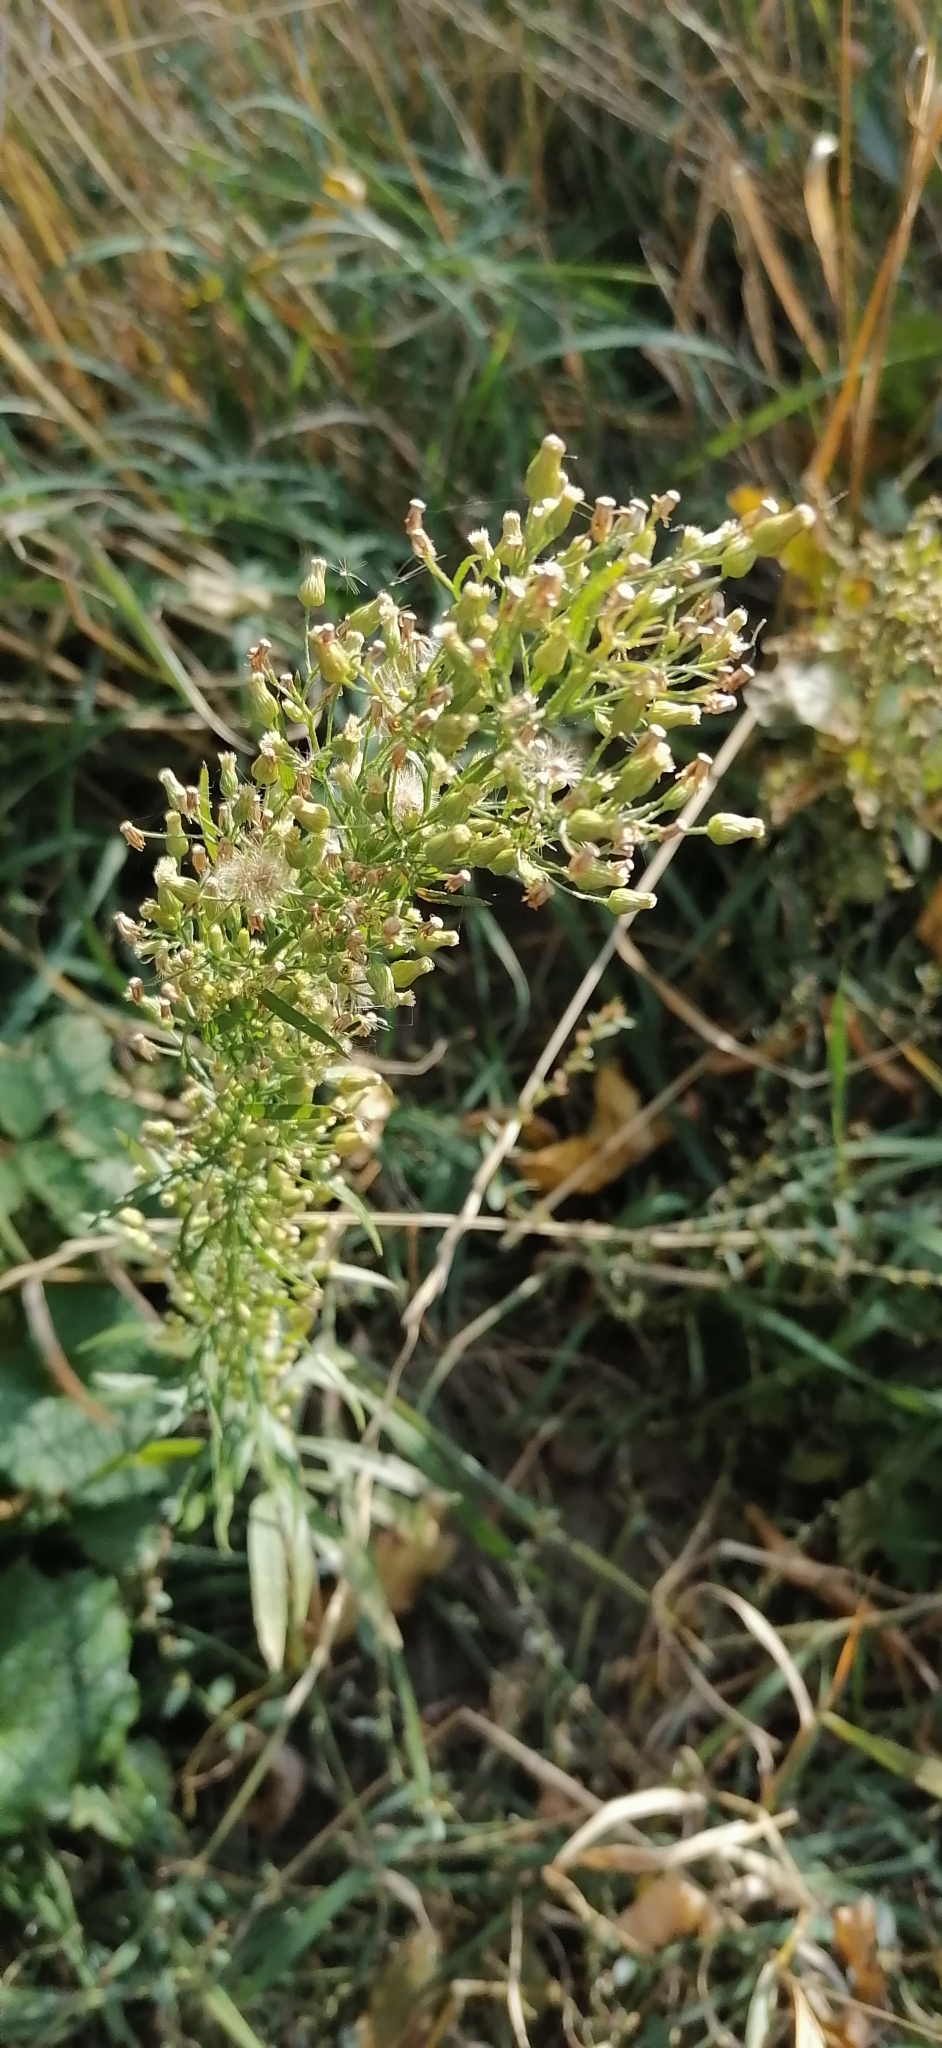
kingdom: Plantae
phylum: Tracheophyta
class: Magnoliopsida
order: Asterales
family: Asteraceae
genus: Erigeron
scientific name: Erigeron canadensis
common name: Canadian fleabane
